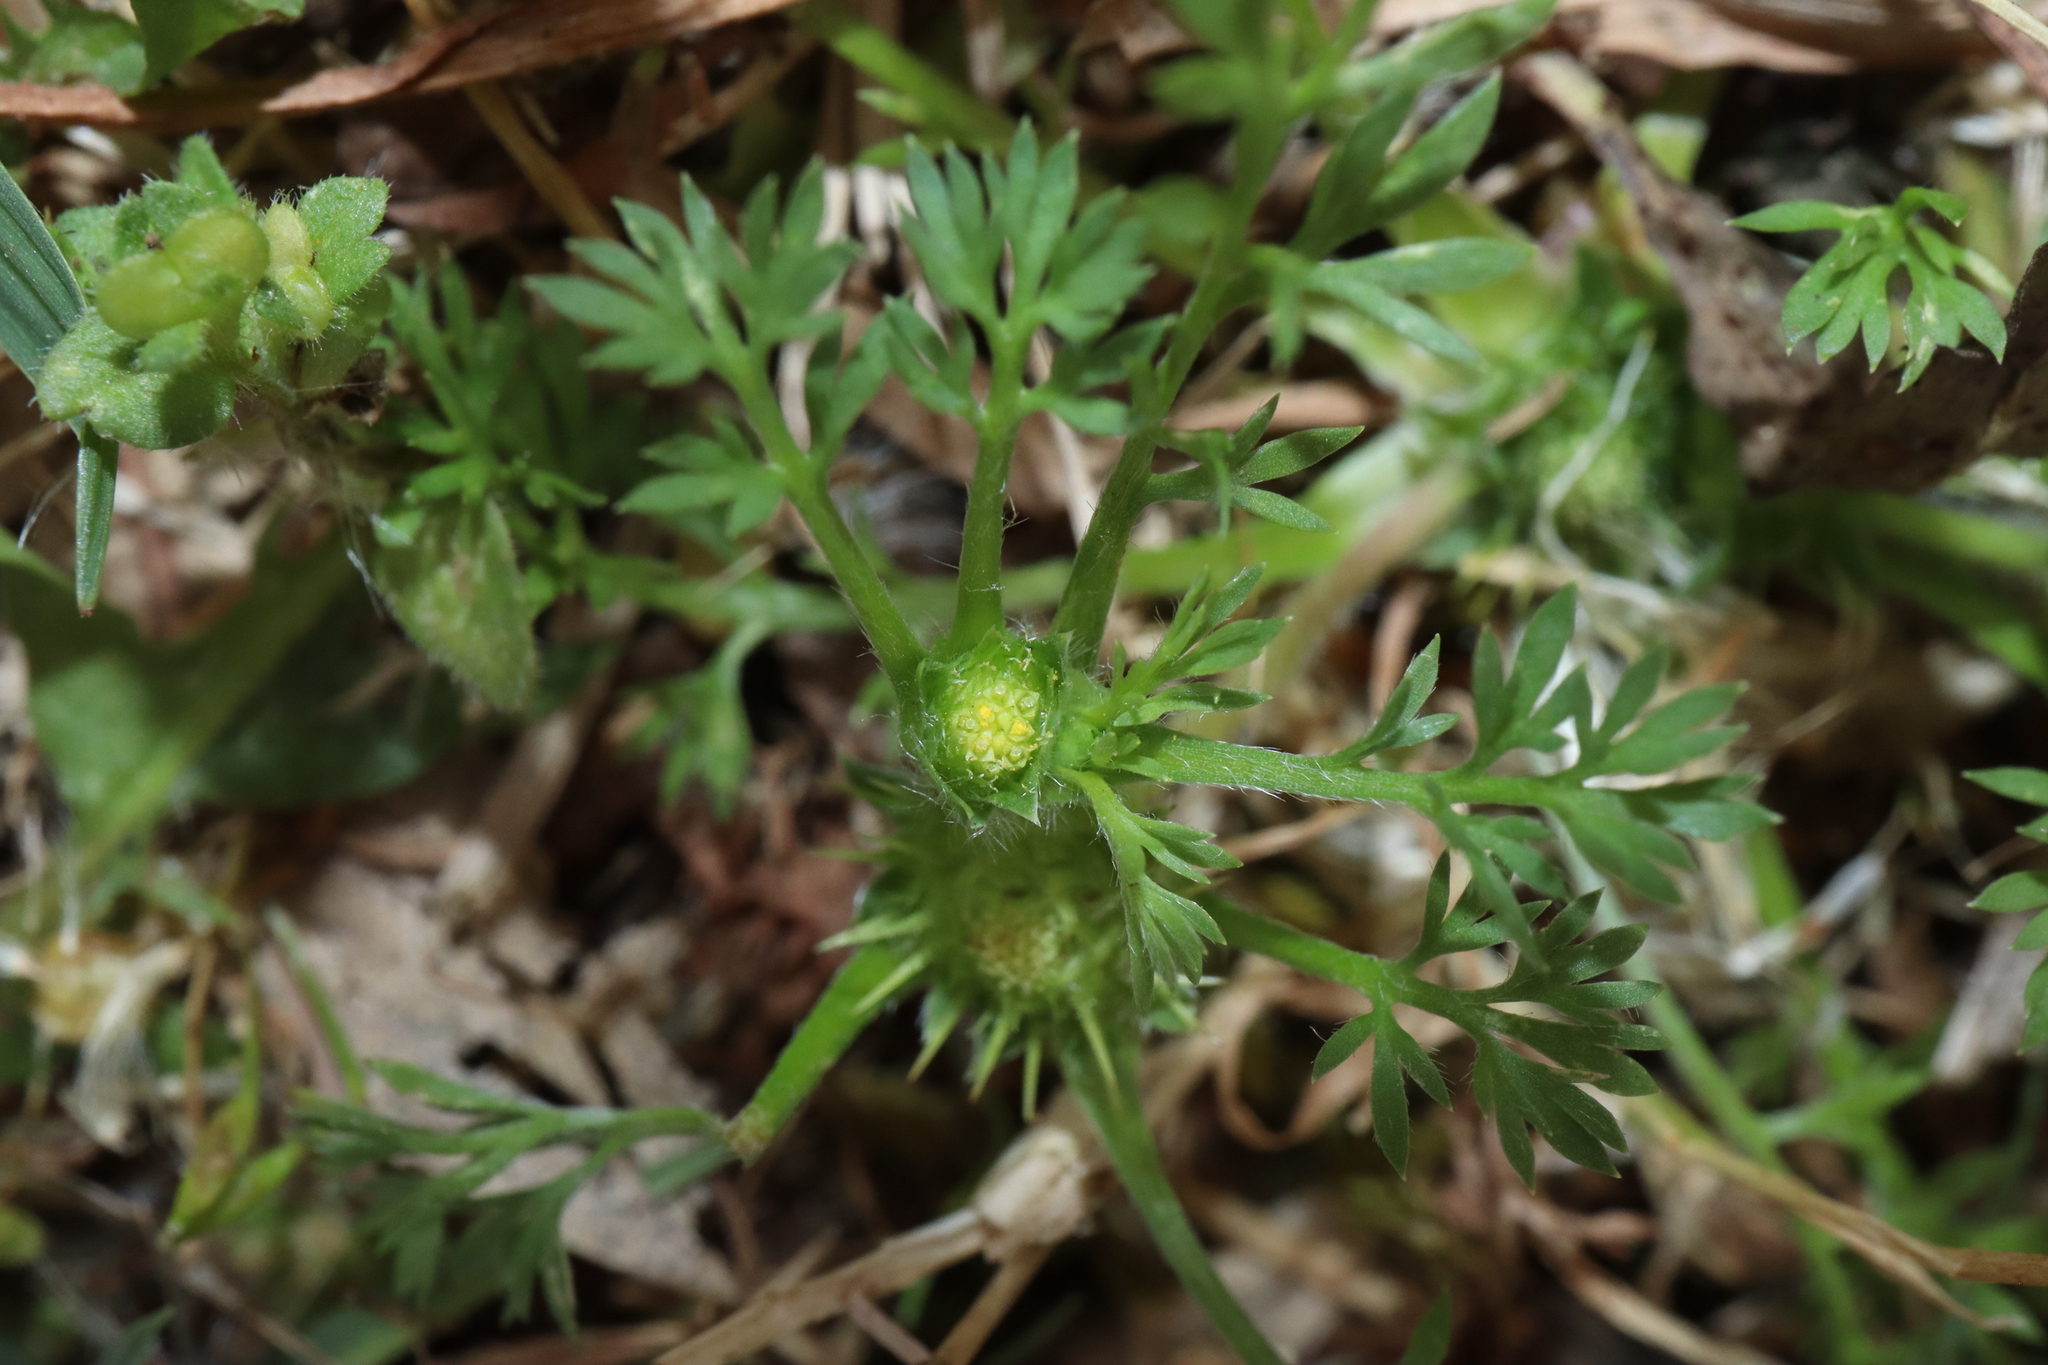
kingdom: Plantae
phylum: Tracheophyta
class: Magnoliopsida
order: Asterales
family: Asteraceae
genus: Soliva
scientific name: Soliva sessilis
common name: Field burrweed
